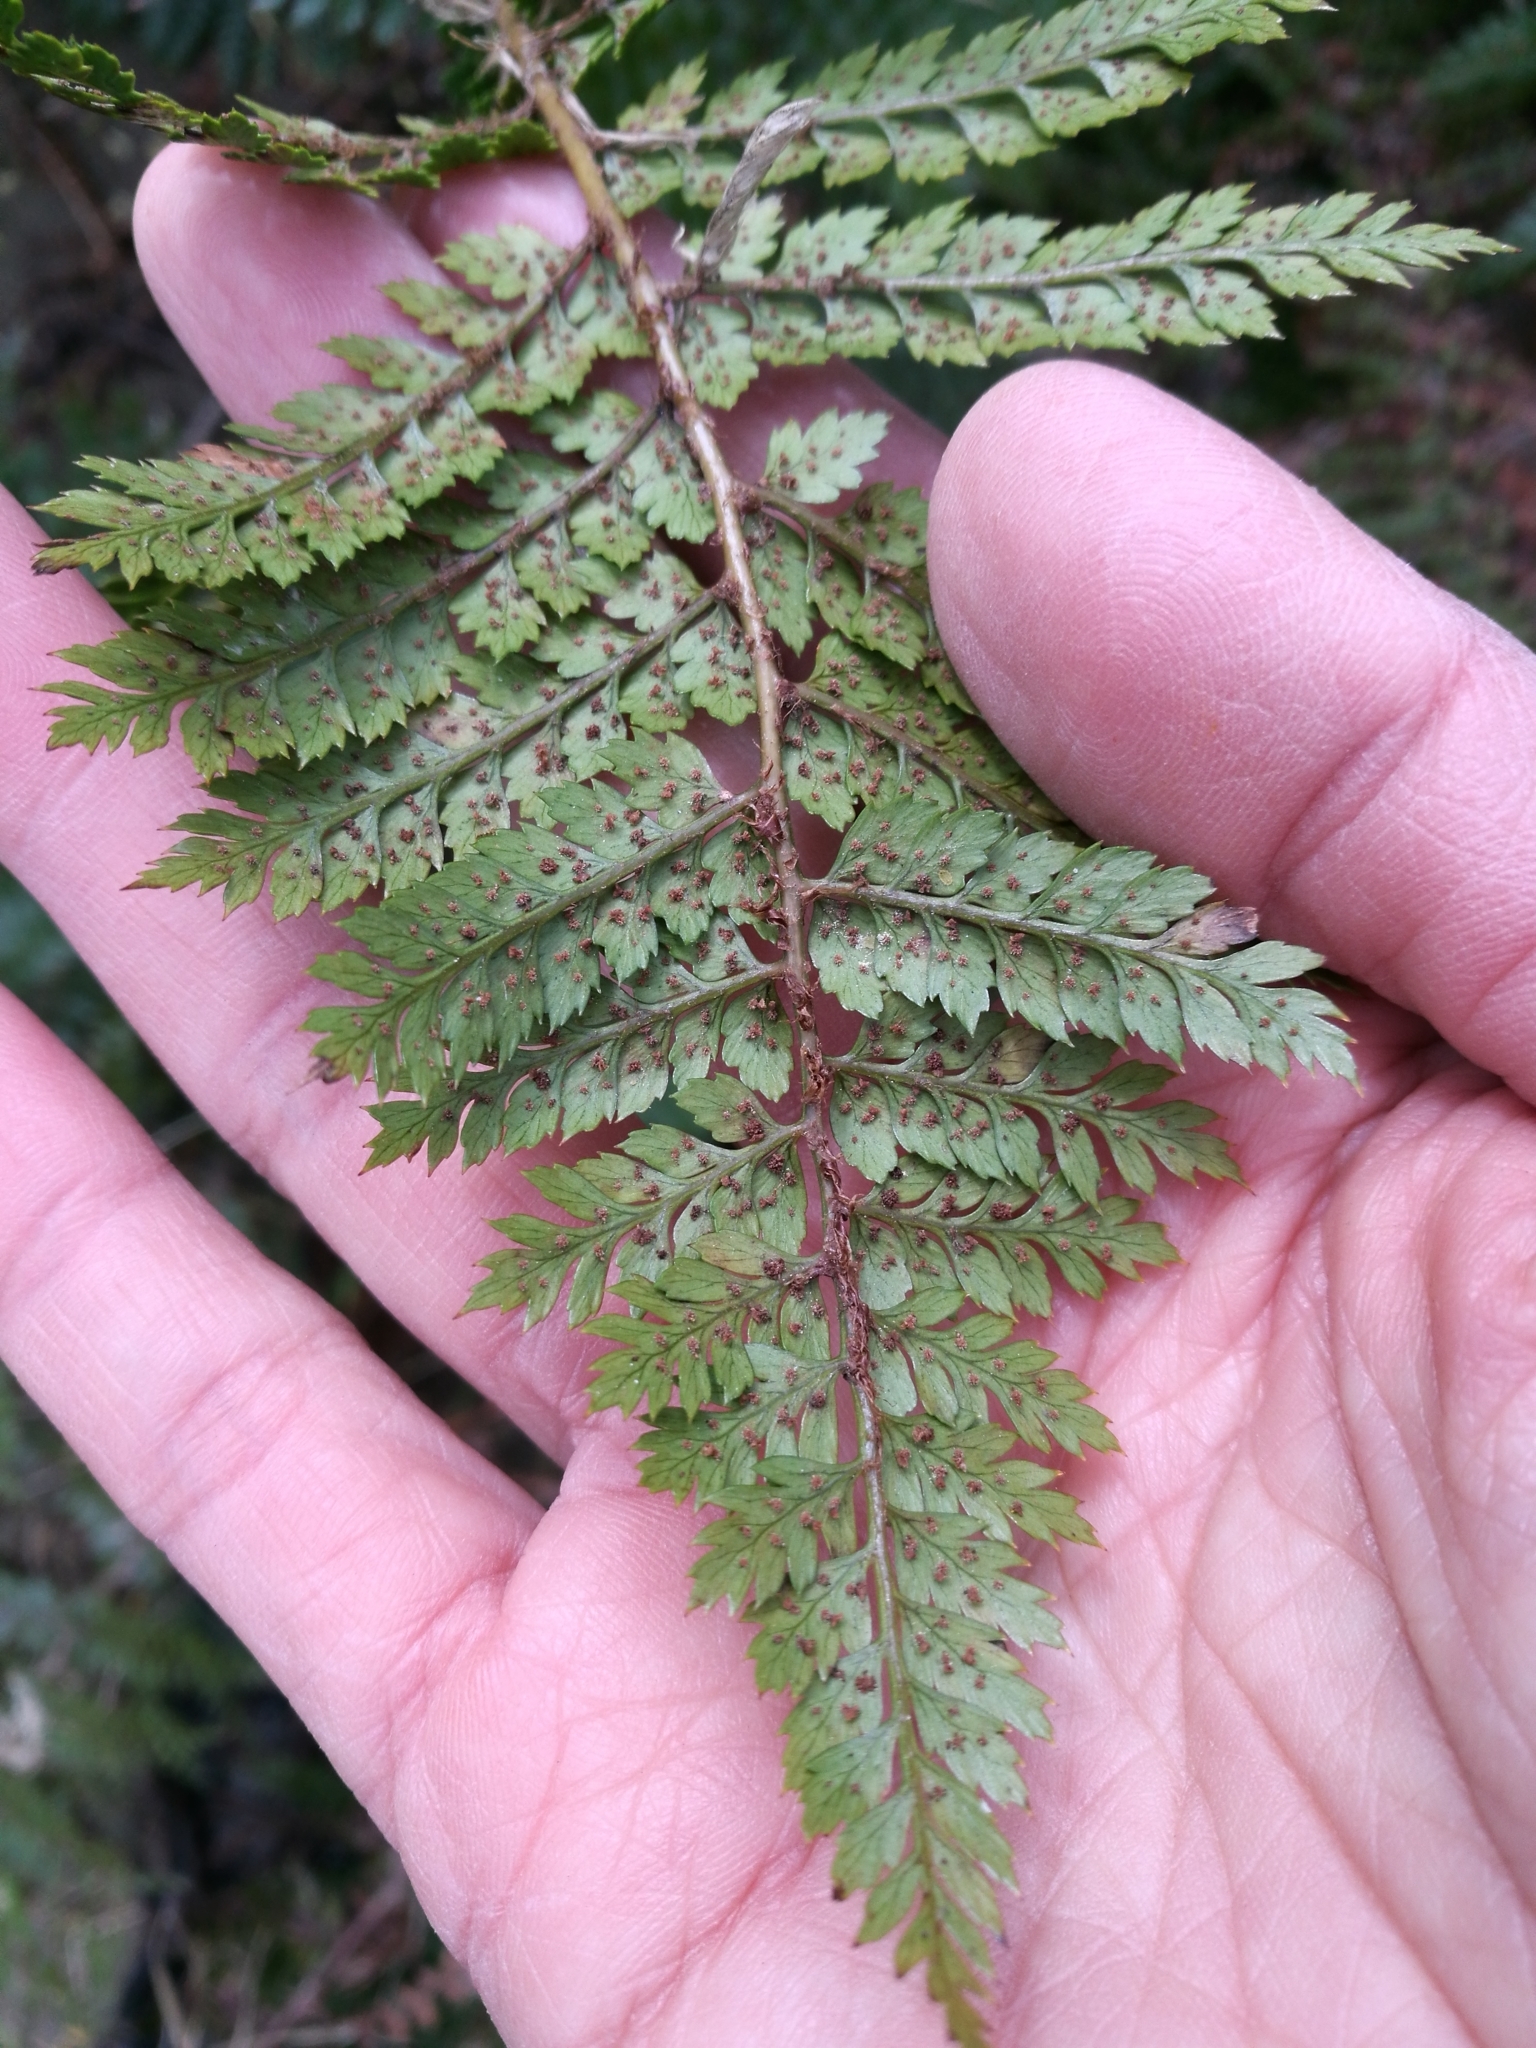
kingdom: Plantae
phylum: Tracheophyta
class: Polypodiopsida
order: Polypodiales
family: Dryopteridaceae
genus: Polystichum
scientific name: Polystichum vestitum
